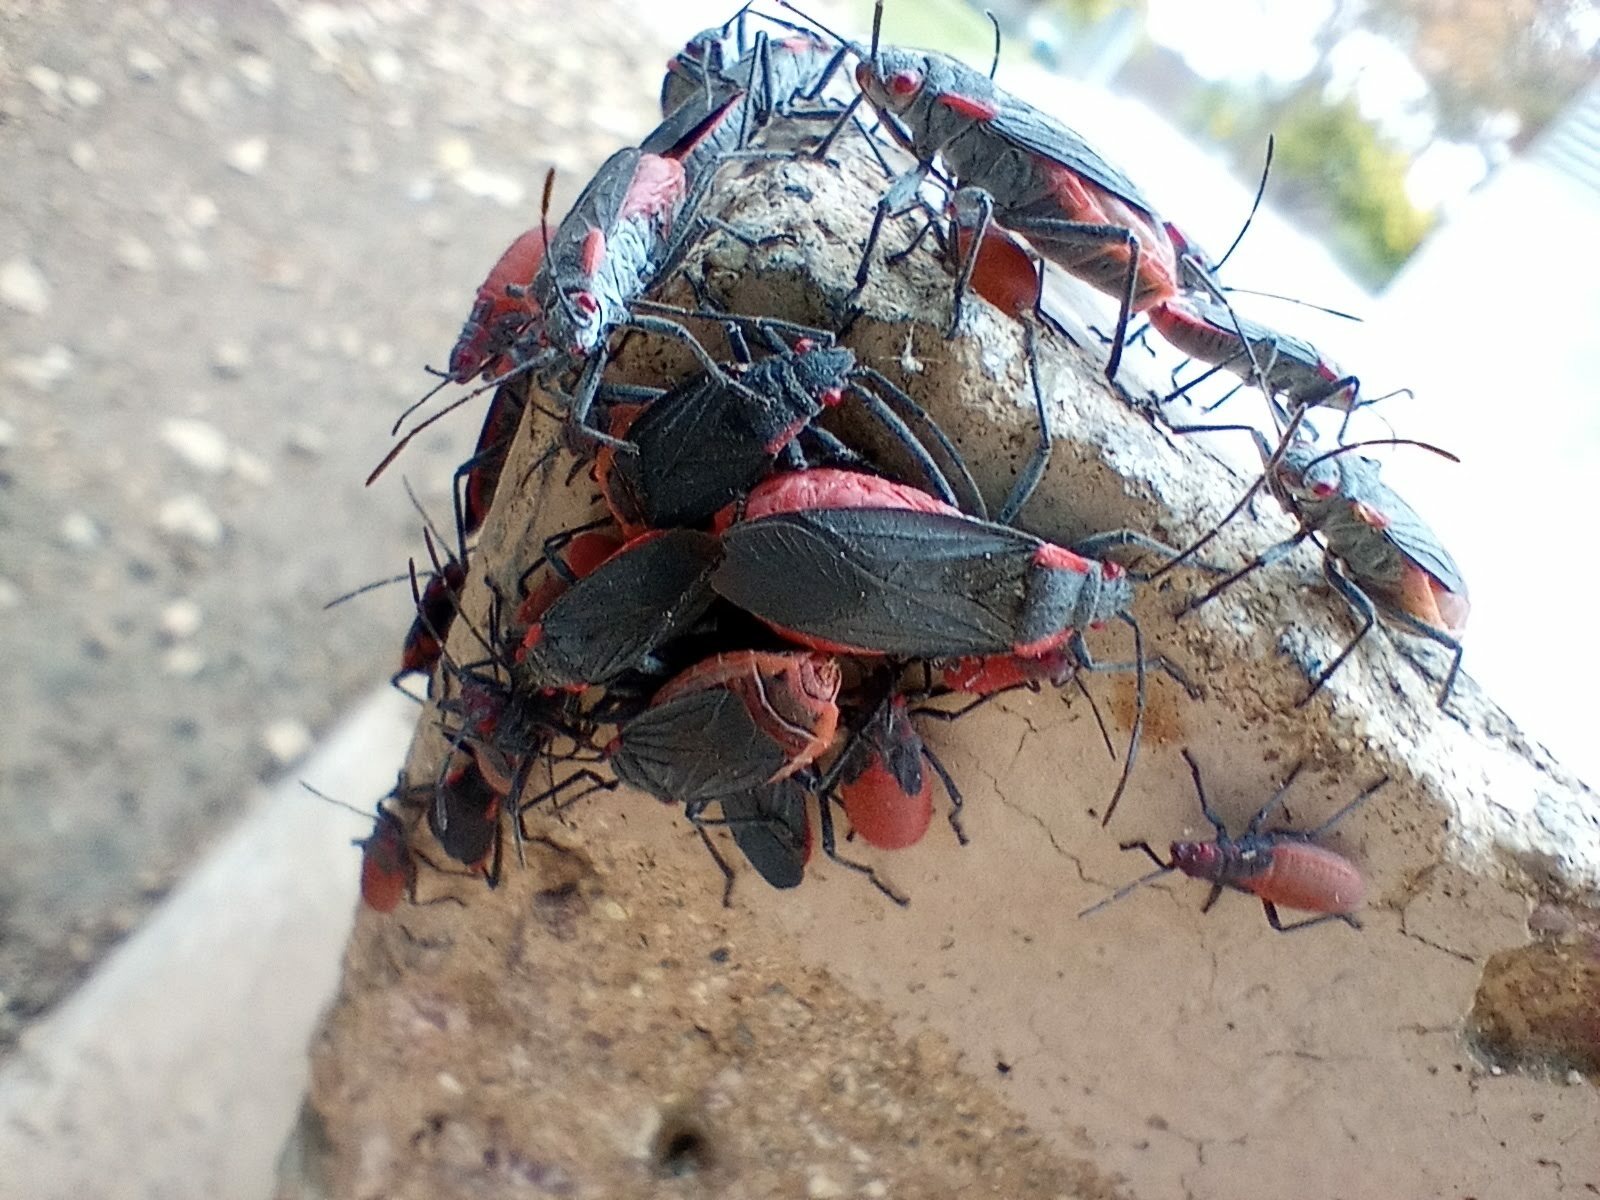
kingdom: Animalia
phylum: Arthropoda
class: Insecta
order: Hemiptera
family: Rhopalidae
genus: Jadera
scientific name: Jadera haematoloma
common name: Red-shouldered bug
